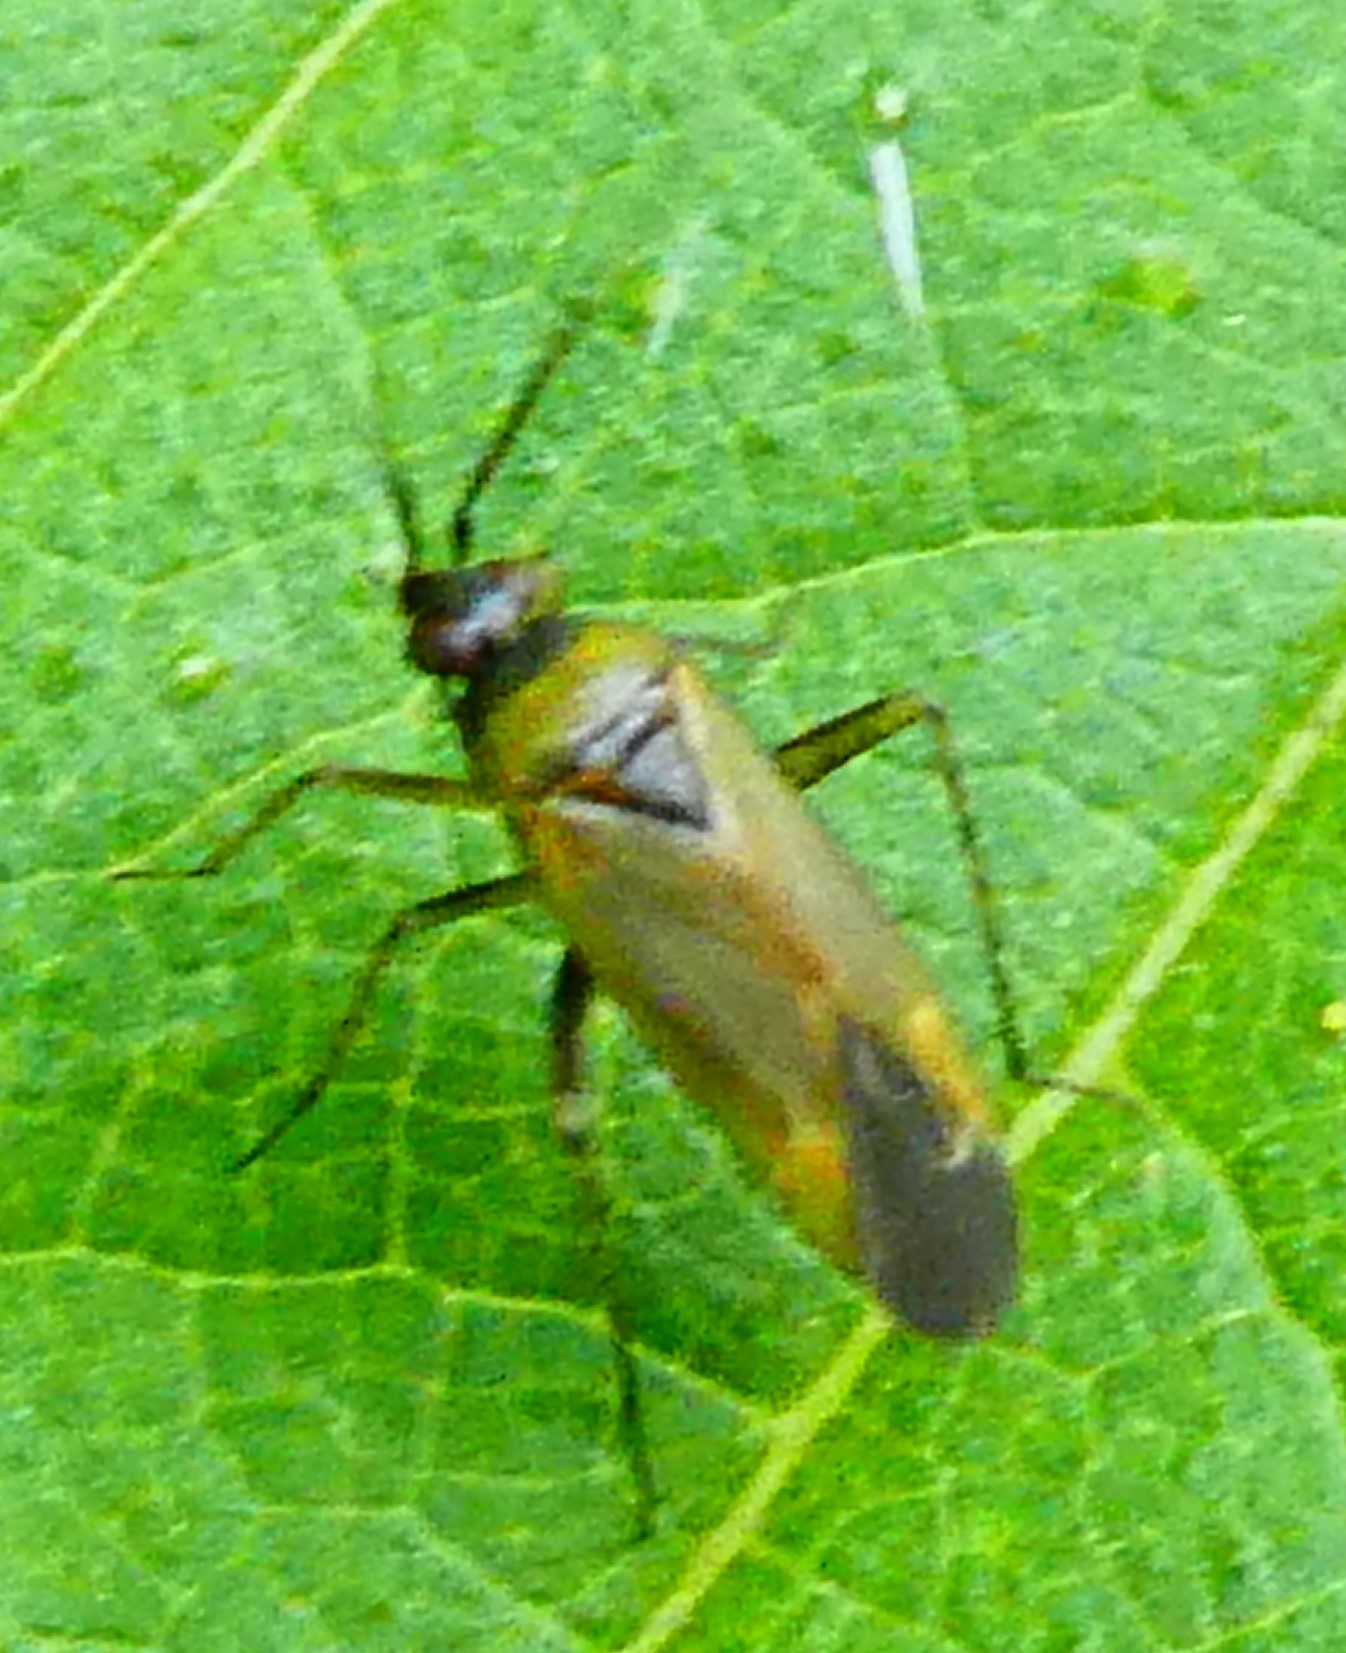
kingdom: Animalia
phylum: Arthropoda
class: Insecta
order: Hemiptera
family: Miridae
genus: Plagiognathus
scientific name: Plagiognathus arbustorum
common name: Plant bug
